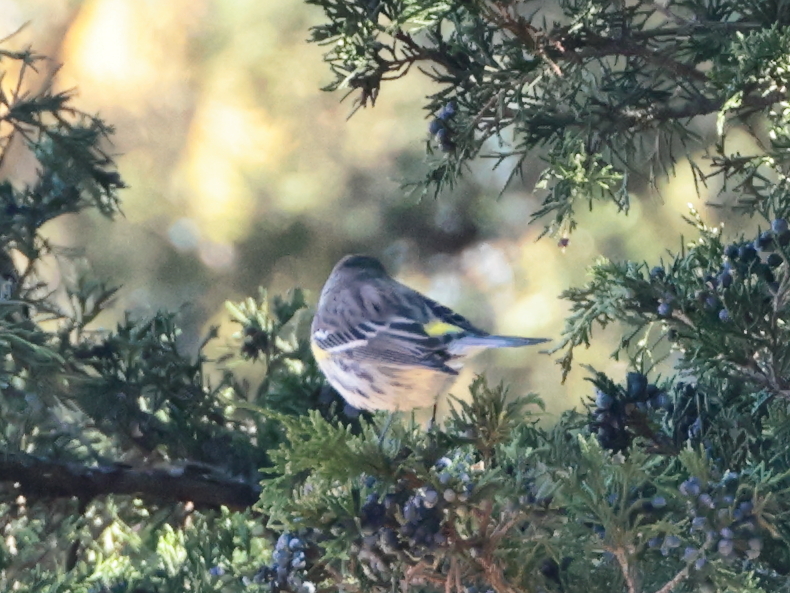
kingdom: Animalia
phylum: Chordata
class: Aves
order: Passeriformes
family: Parulidae
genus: Setophaga
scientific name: Setophaga coronata
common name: Myrtle warbler
